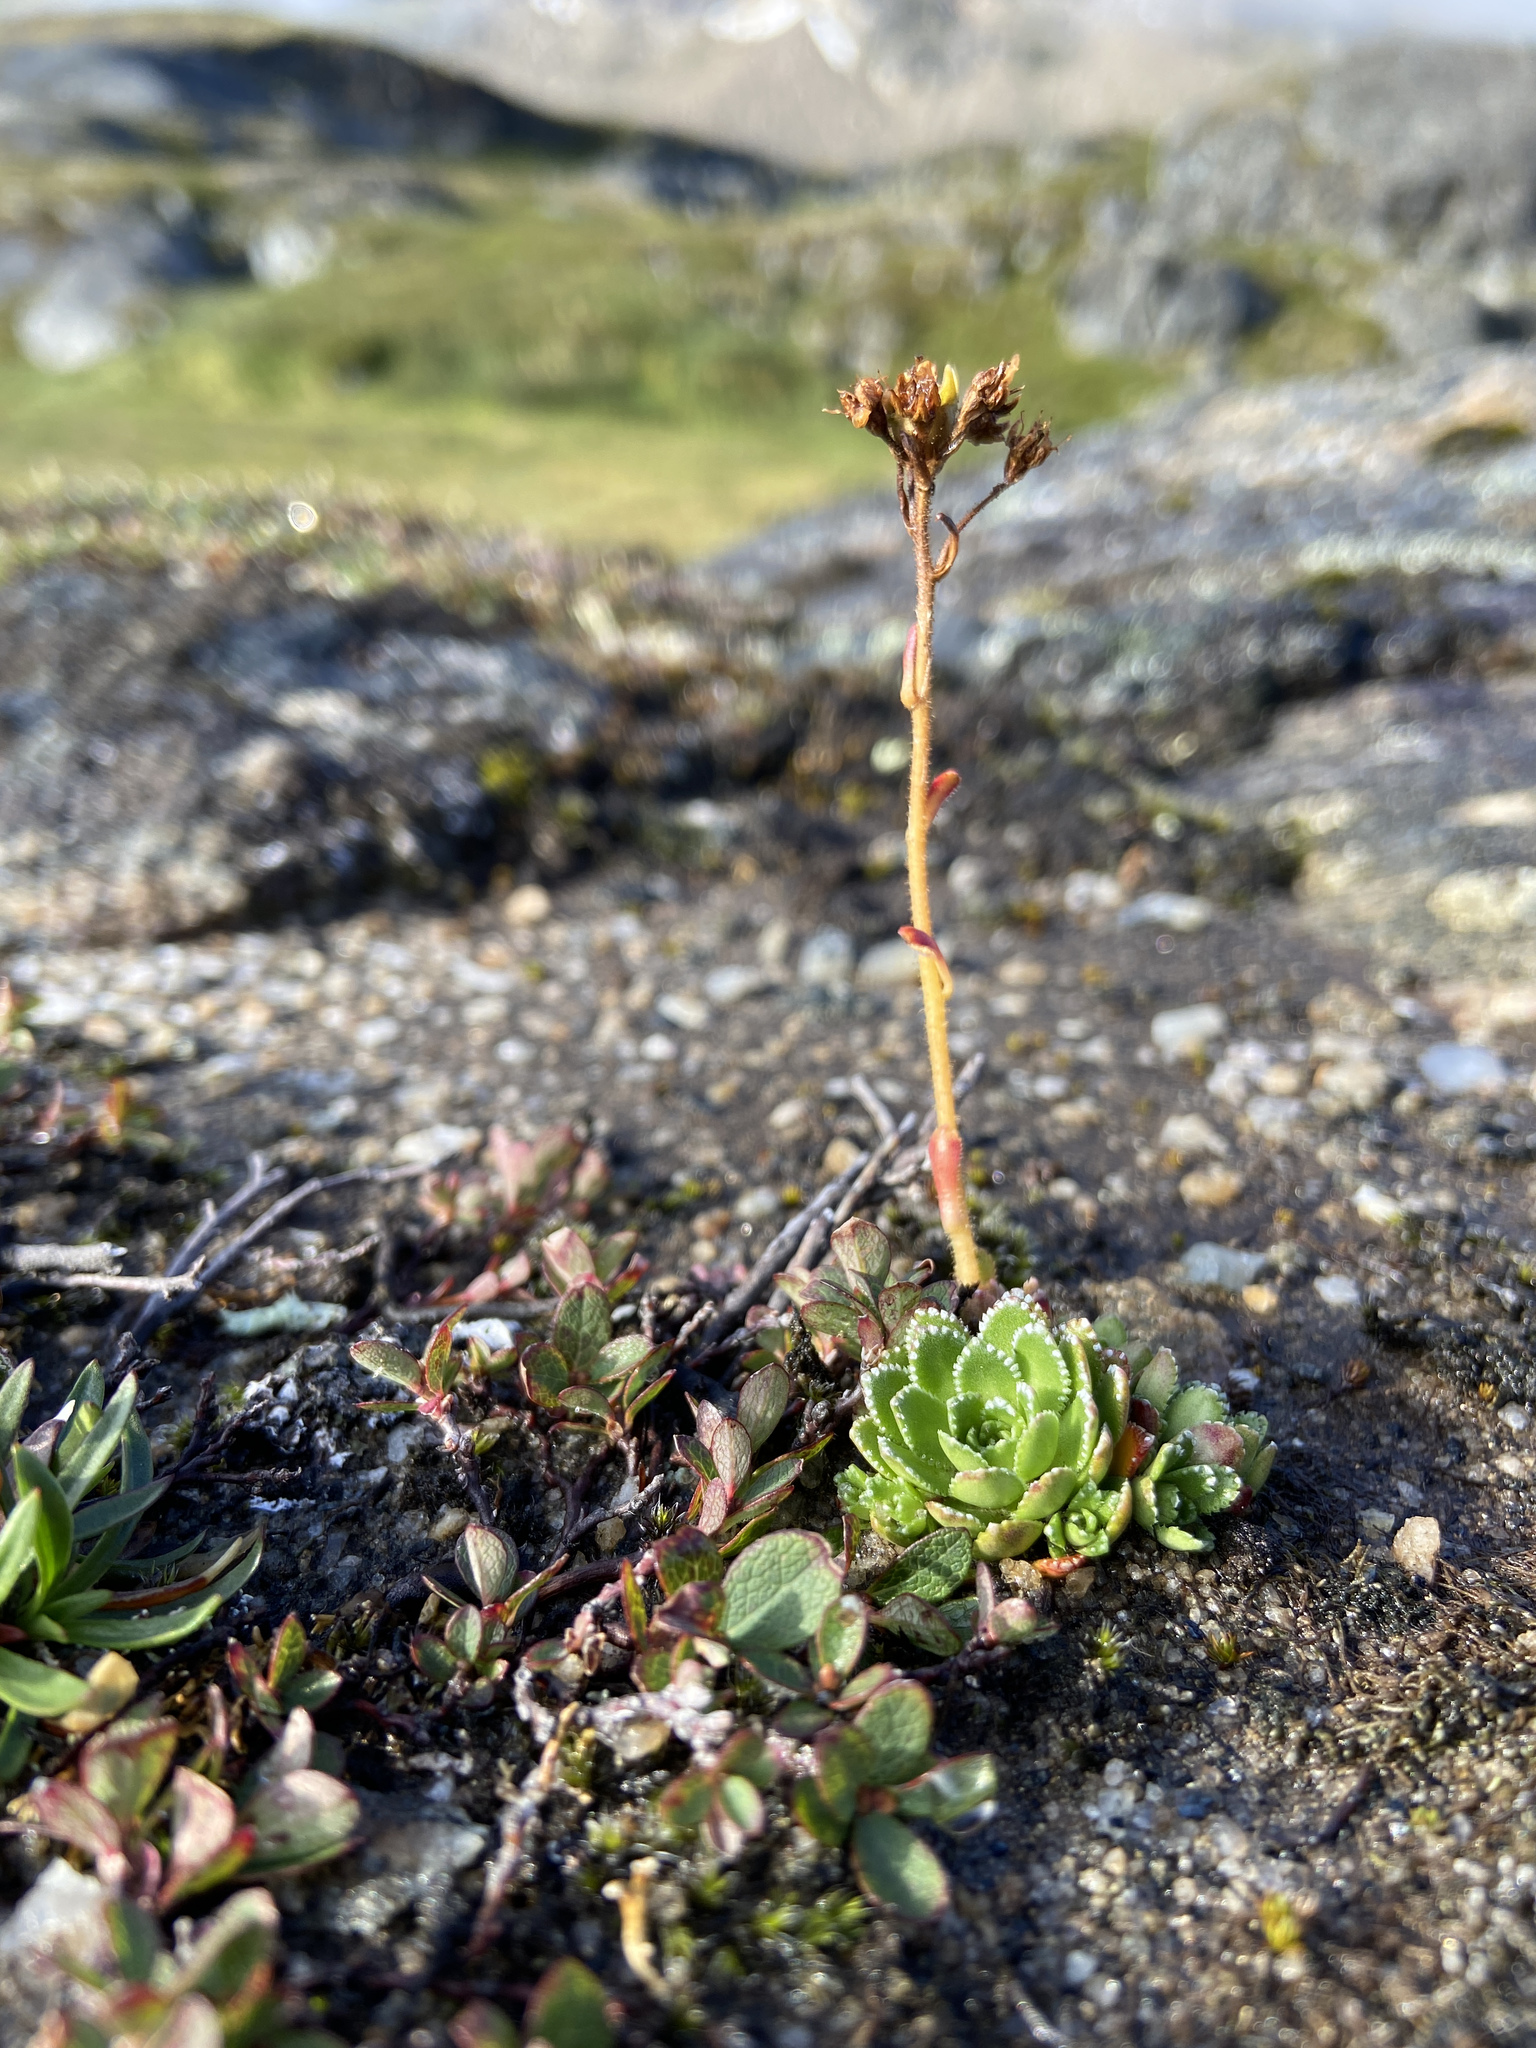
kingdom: Plantae
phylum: Tracheophyta
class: Magnoliopsida
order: Saxifragales
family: Saxifragaceae
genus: Saxifraga
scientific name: Saxifraga paniculata
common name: Livelong saxifrage
